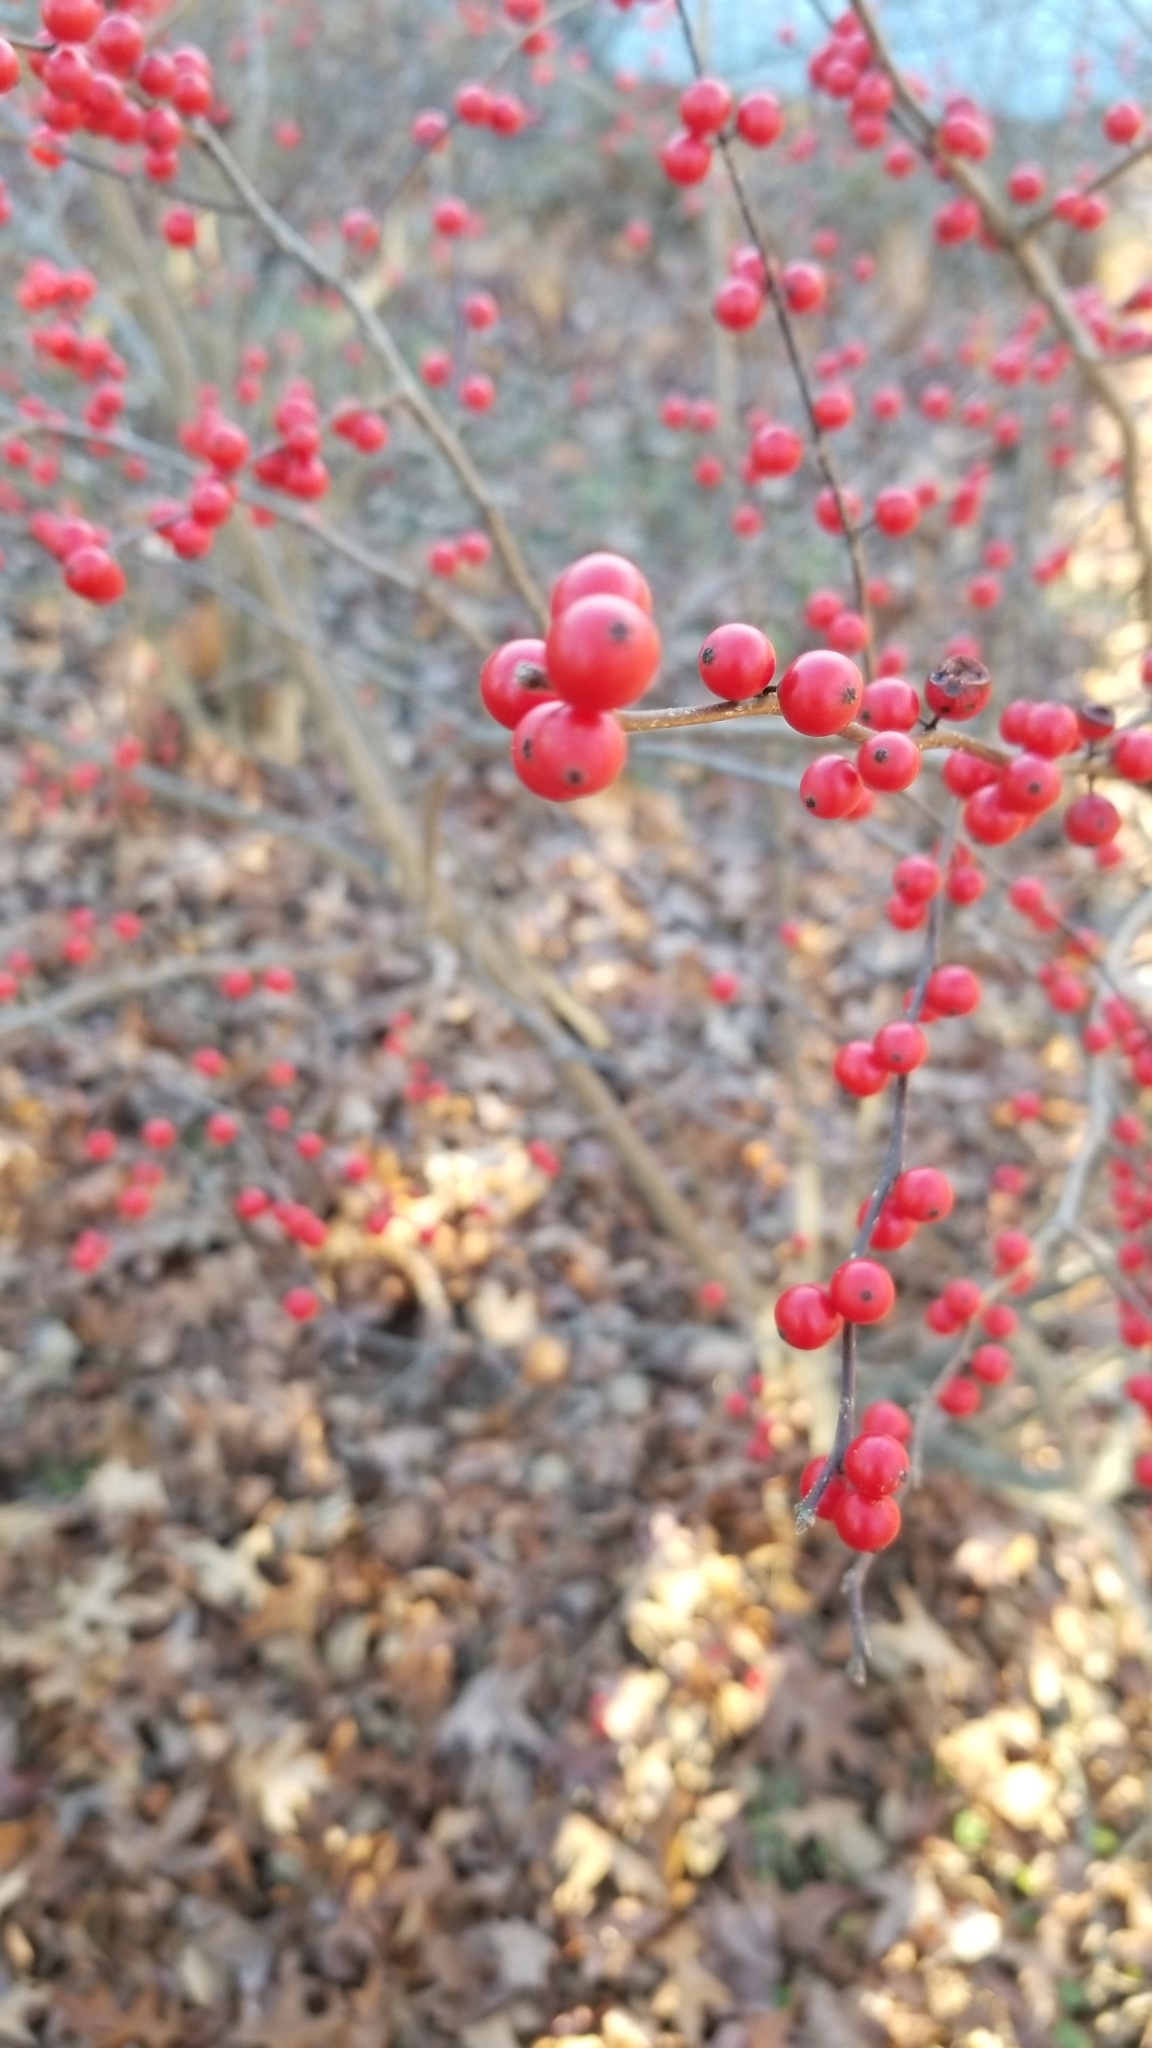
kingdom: Plantae
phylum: Tracheophyta
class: Magnoliopsida
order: Aquifoliales
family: Aquifoliaceae
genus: Ilex
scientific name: Ilex verticillata
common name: Virginia winterberry
